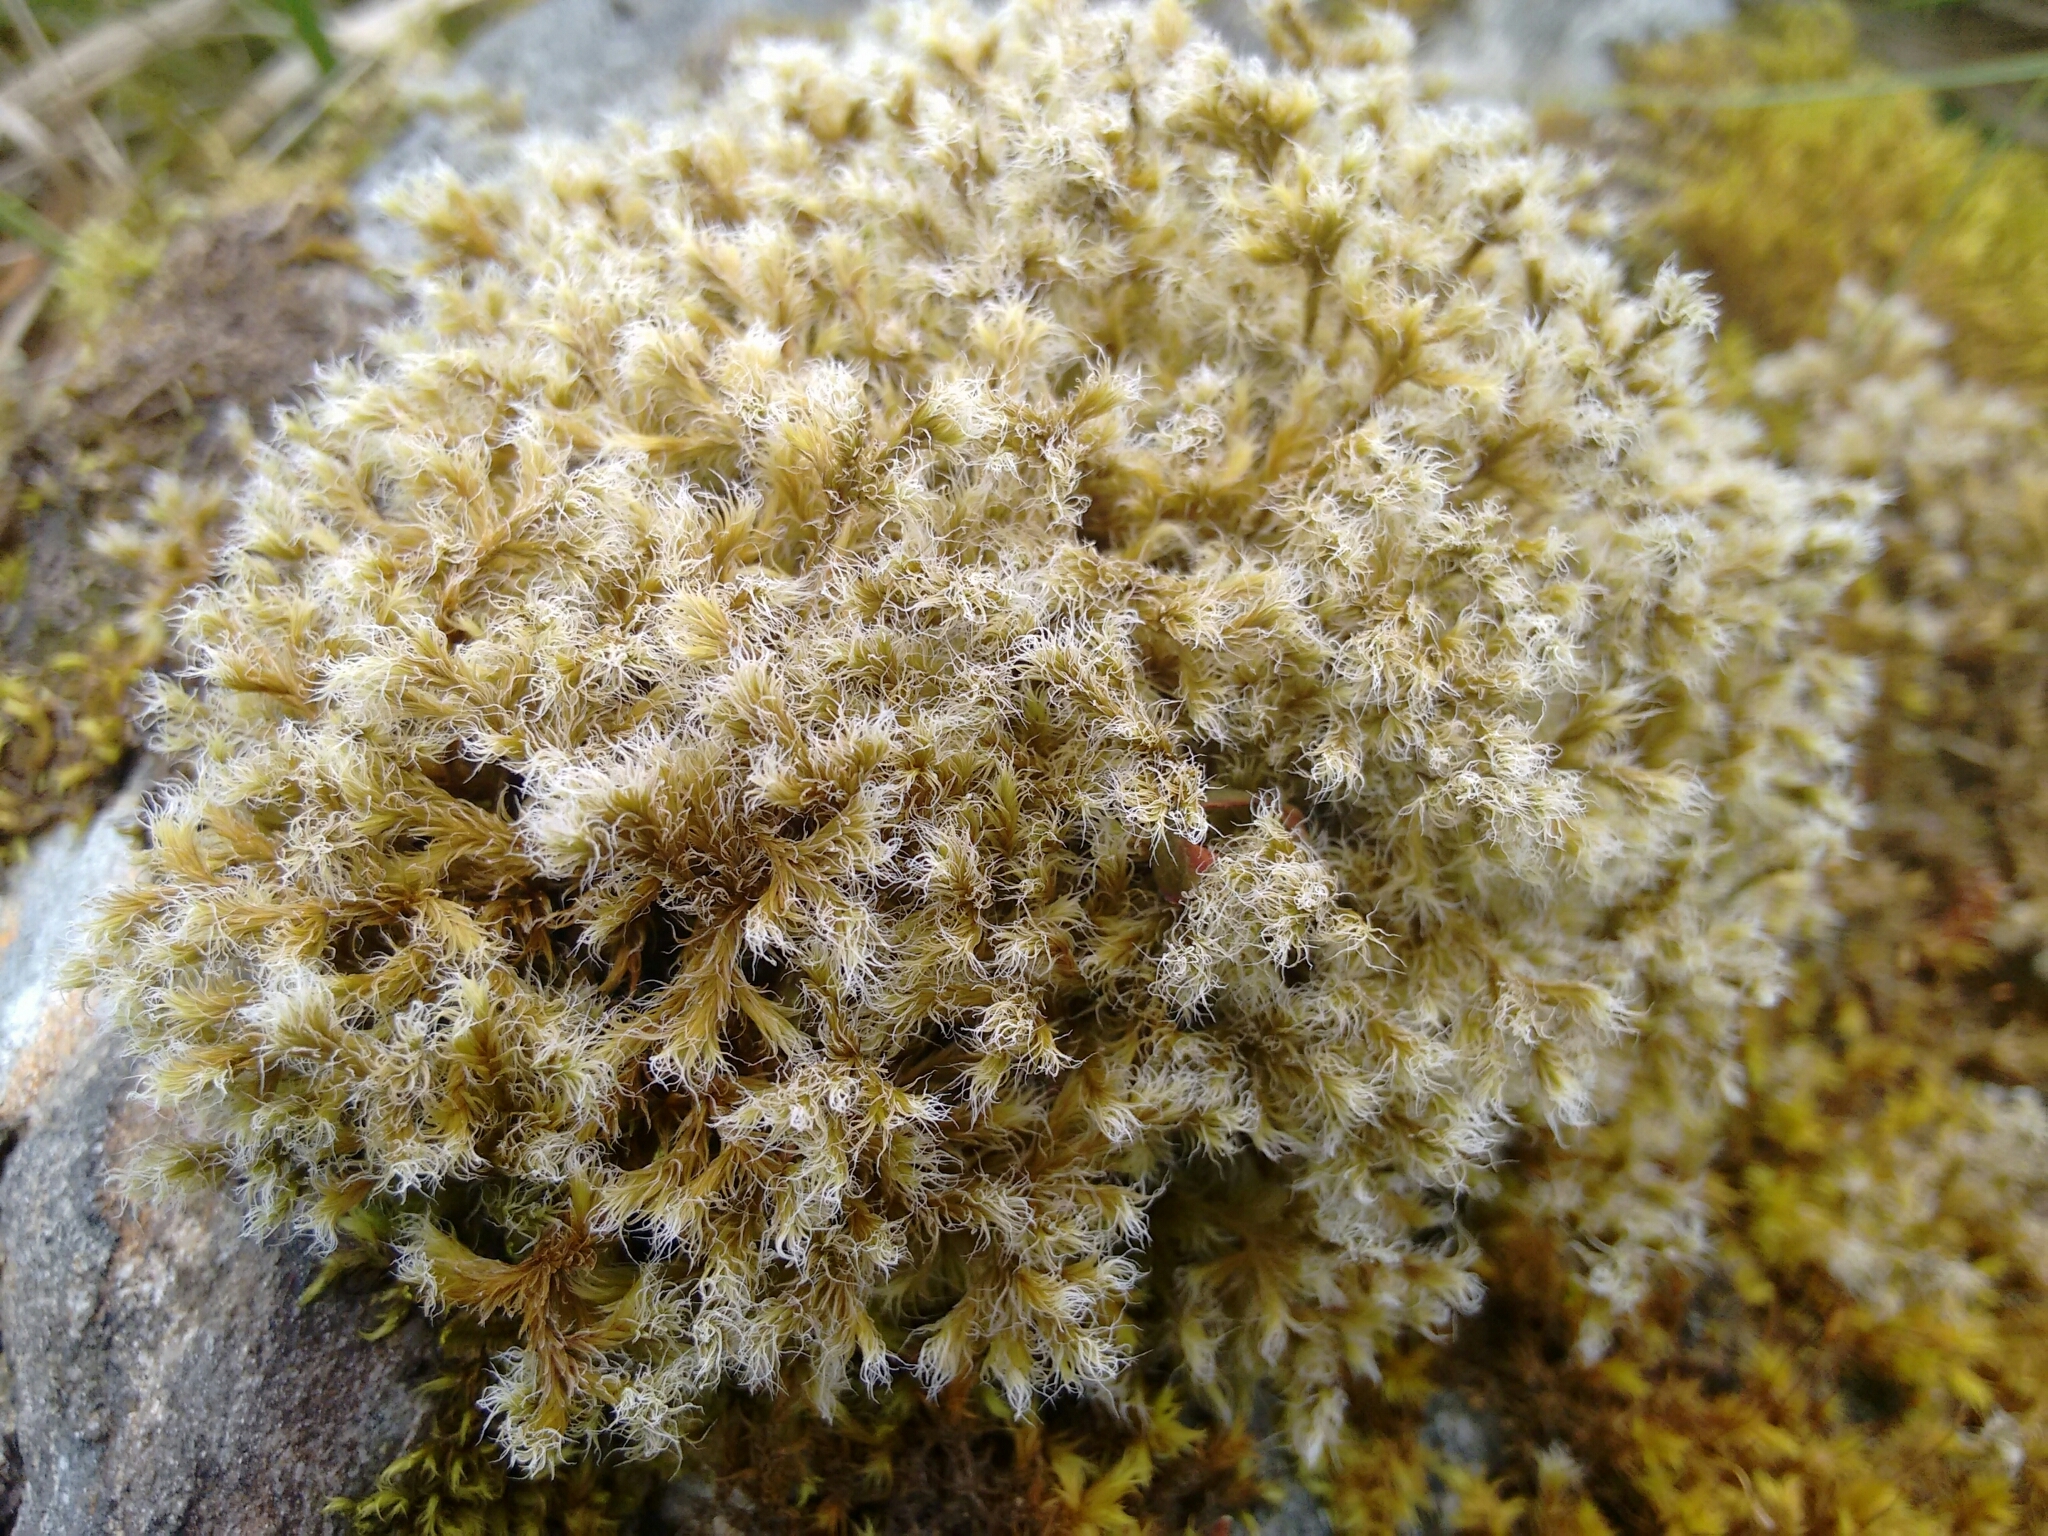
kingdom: Plantae
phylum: Bryophyta
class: Bryopsida
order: Grimmiales
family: Grimmiaceae
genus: Racomitrium
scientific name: Racomitrium lanuginosum
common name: Hoary rock moss
